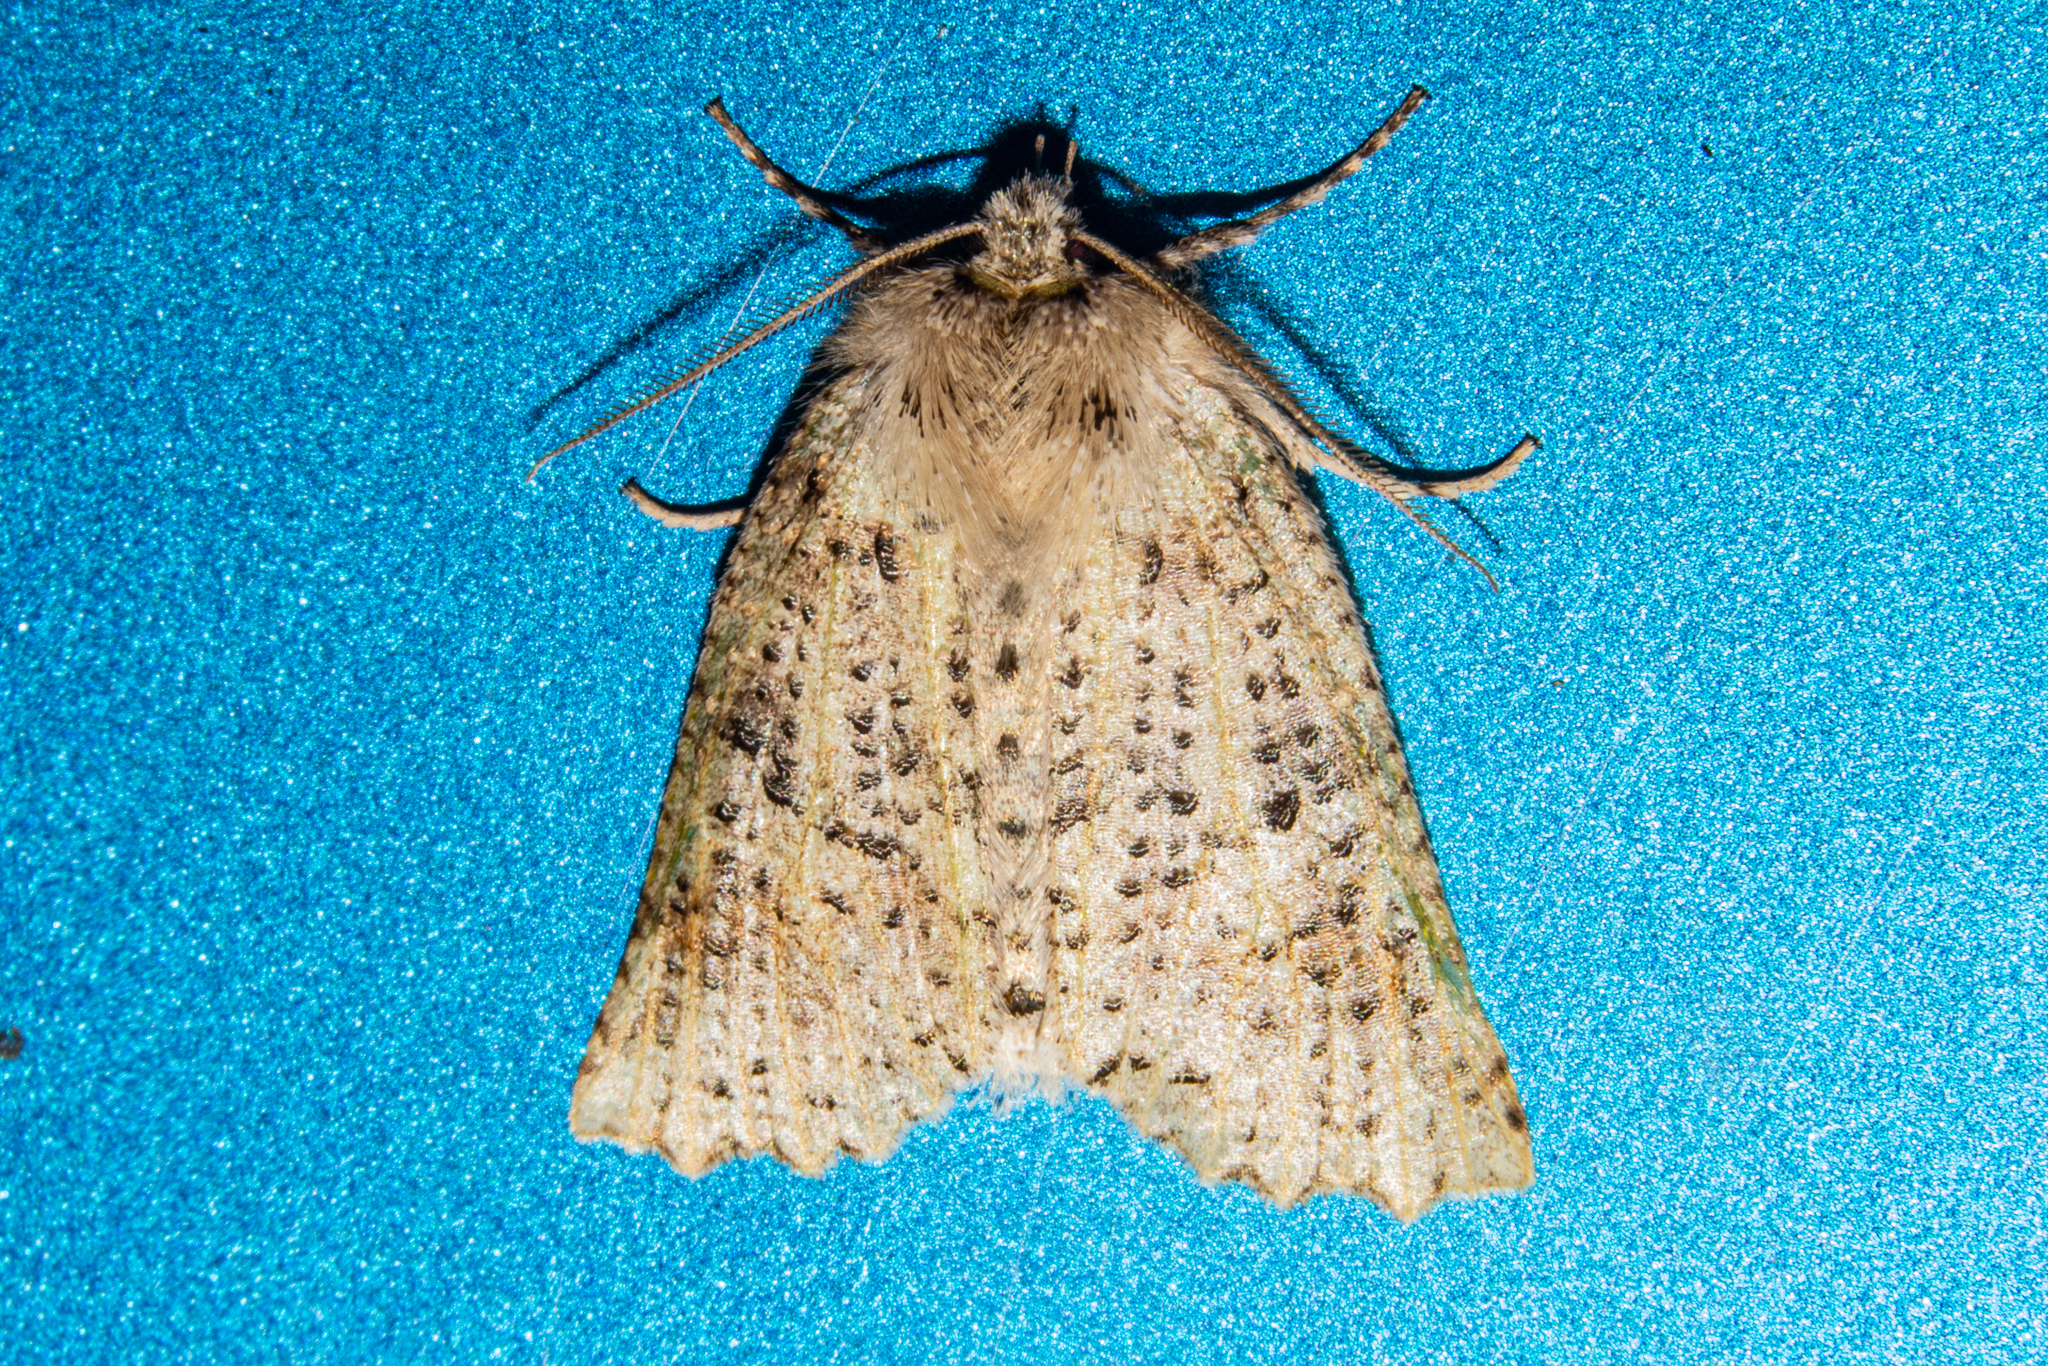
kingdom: Animalia
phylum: Arthropoda
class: Insecta
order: Lepidoptera
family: Geometridae
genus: Declana
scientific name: Declana floccosa
